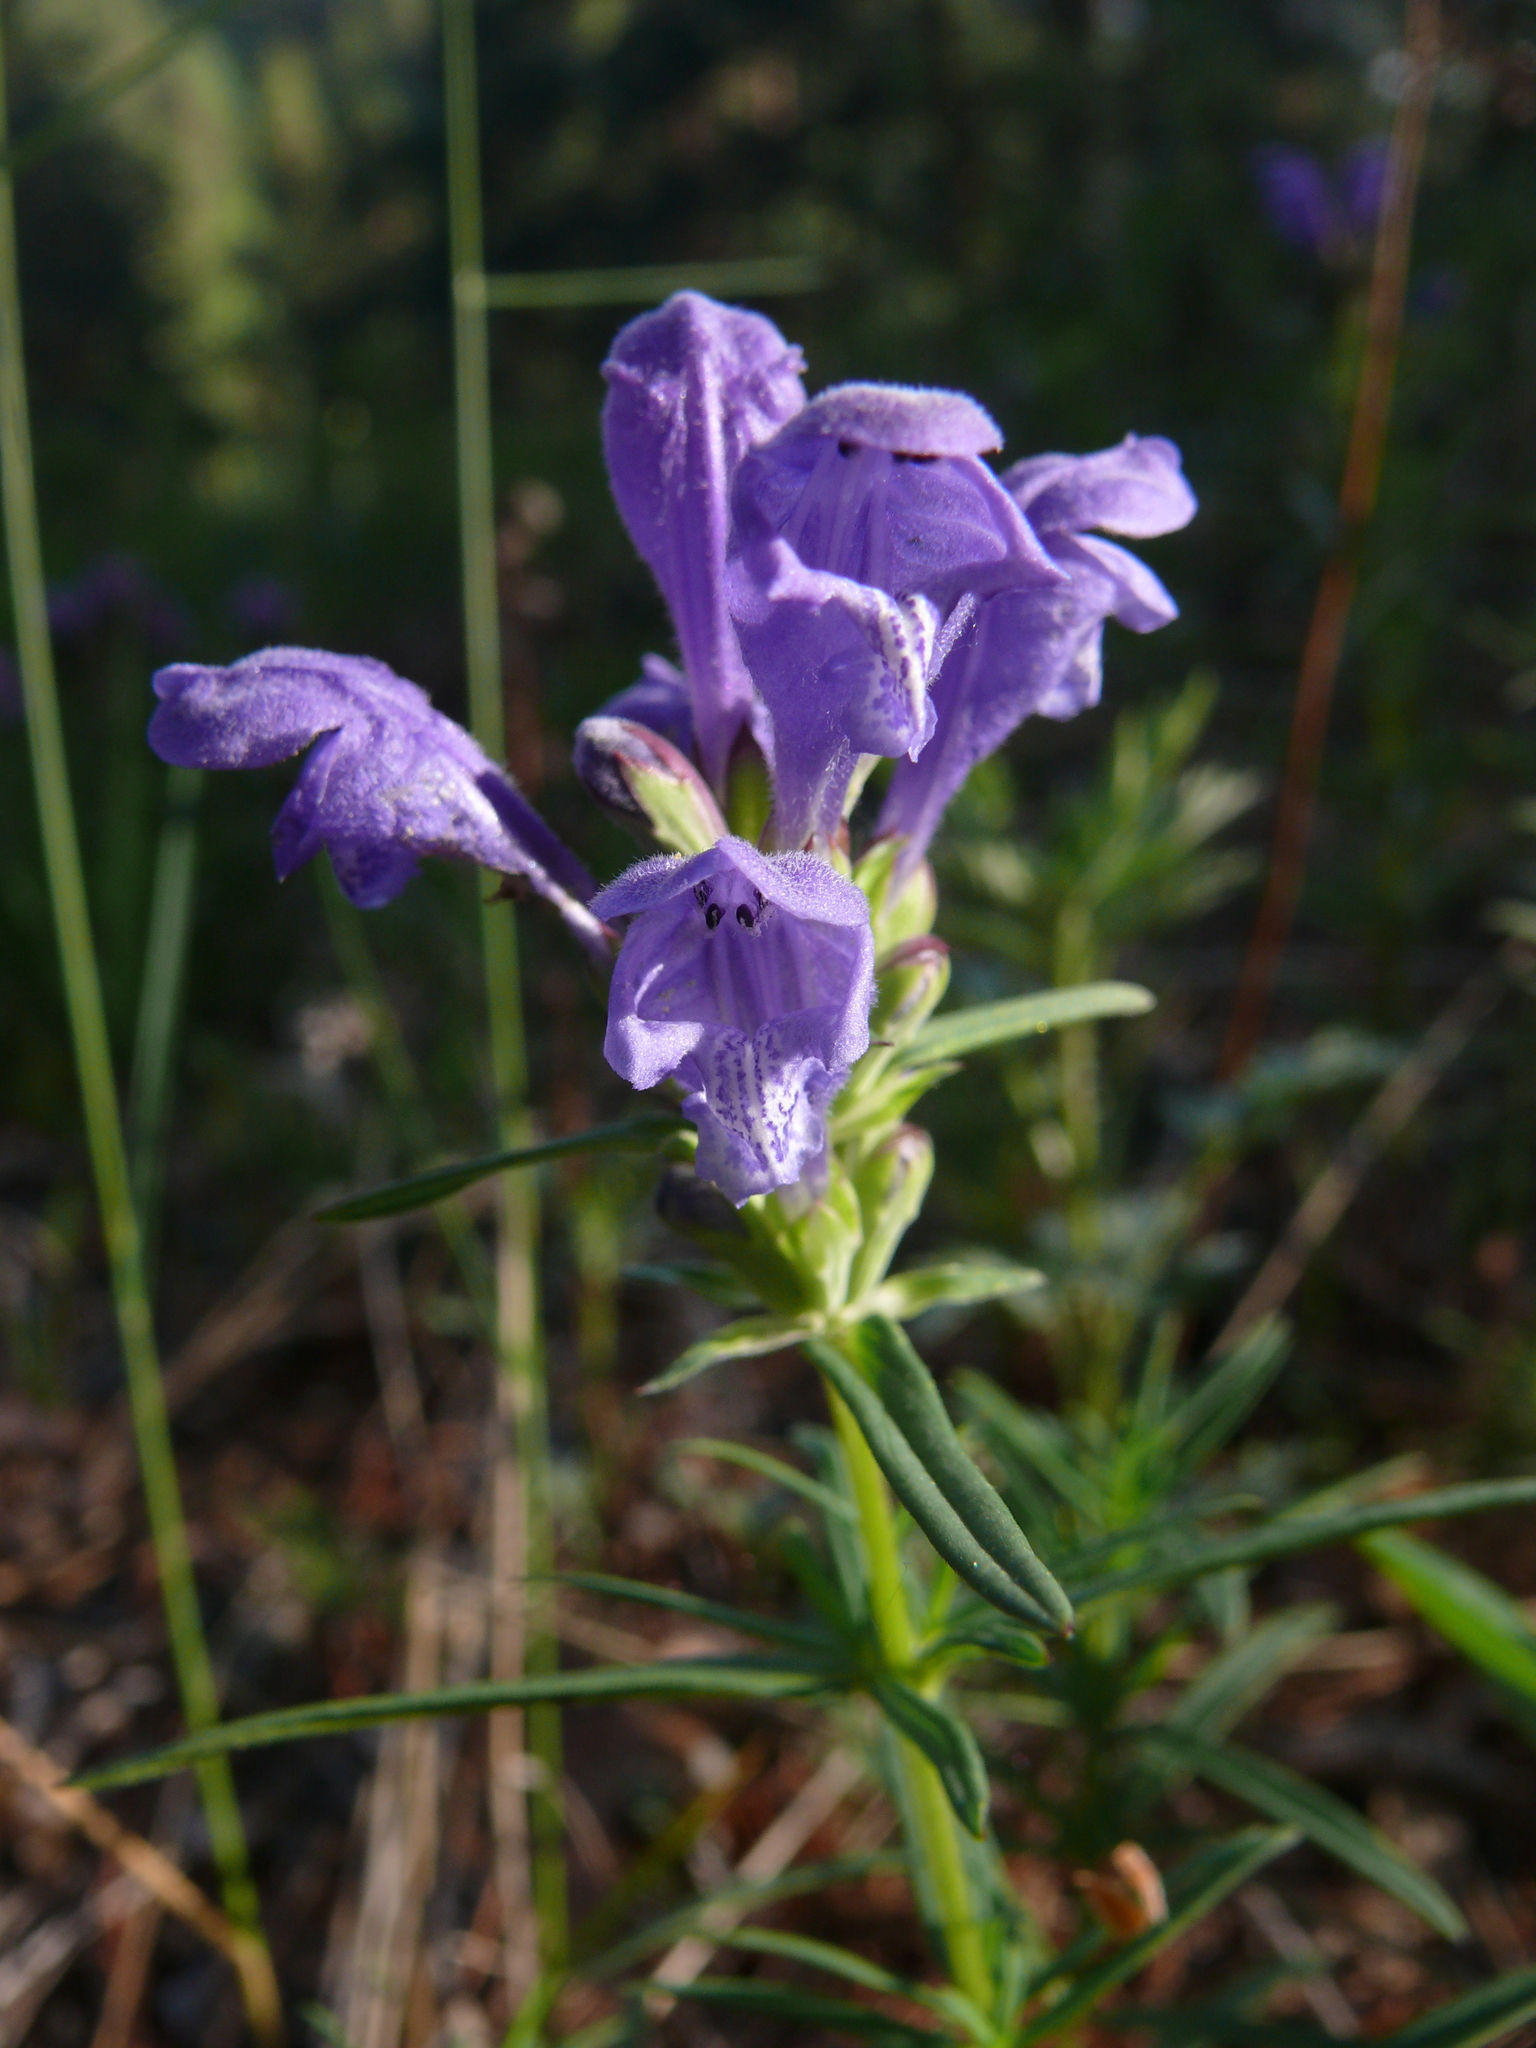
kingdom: Plantae
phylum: Tracheophyta
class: Magnoliopsida
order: Lamiales
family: Lamiaceae
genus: Dracocephalum
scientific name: Dracocephalum ruyschiana
